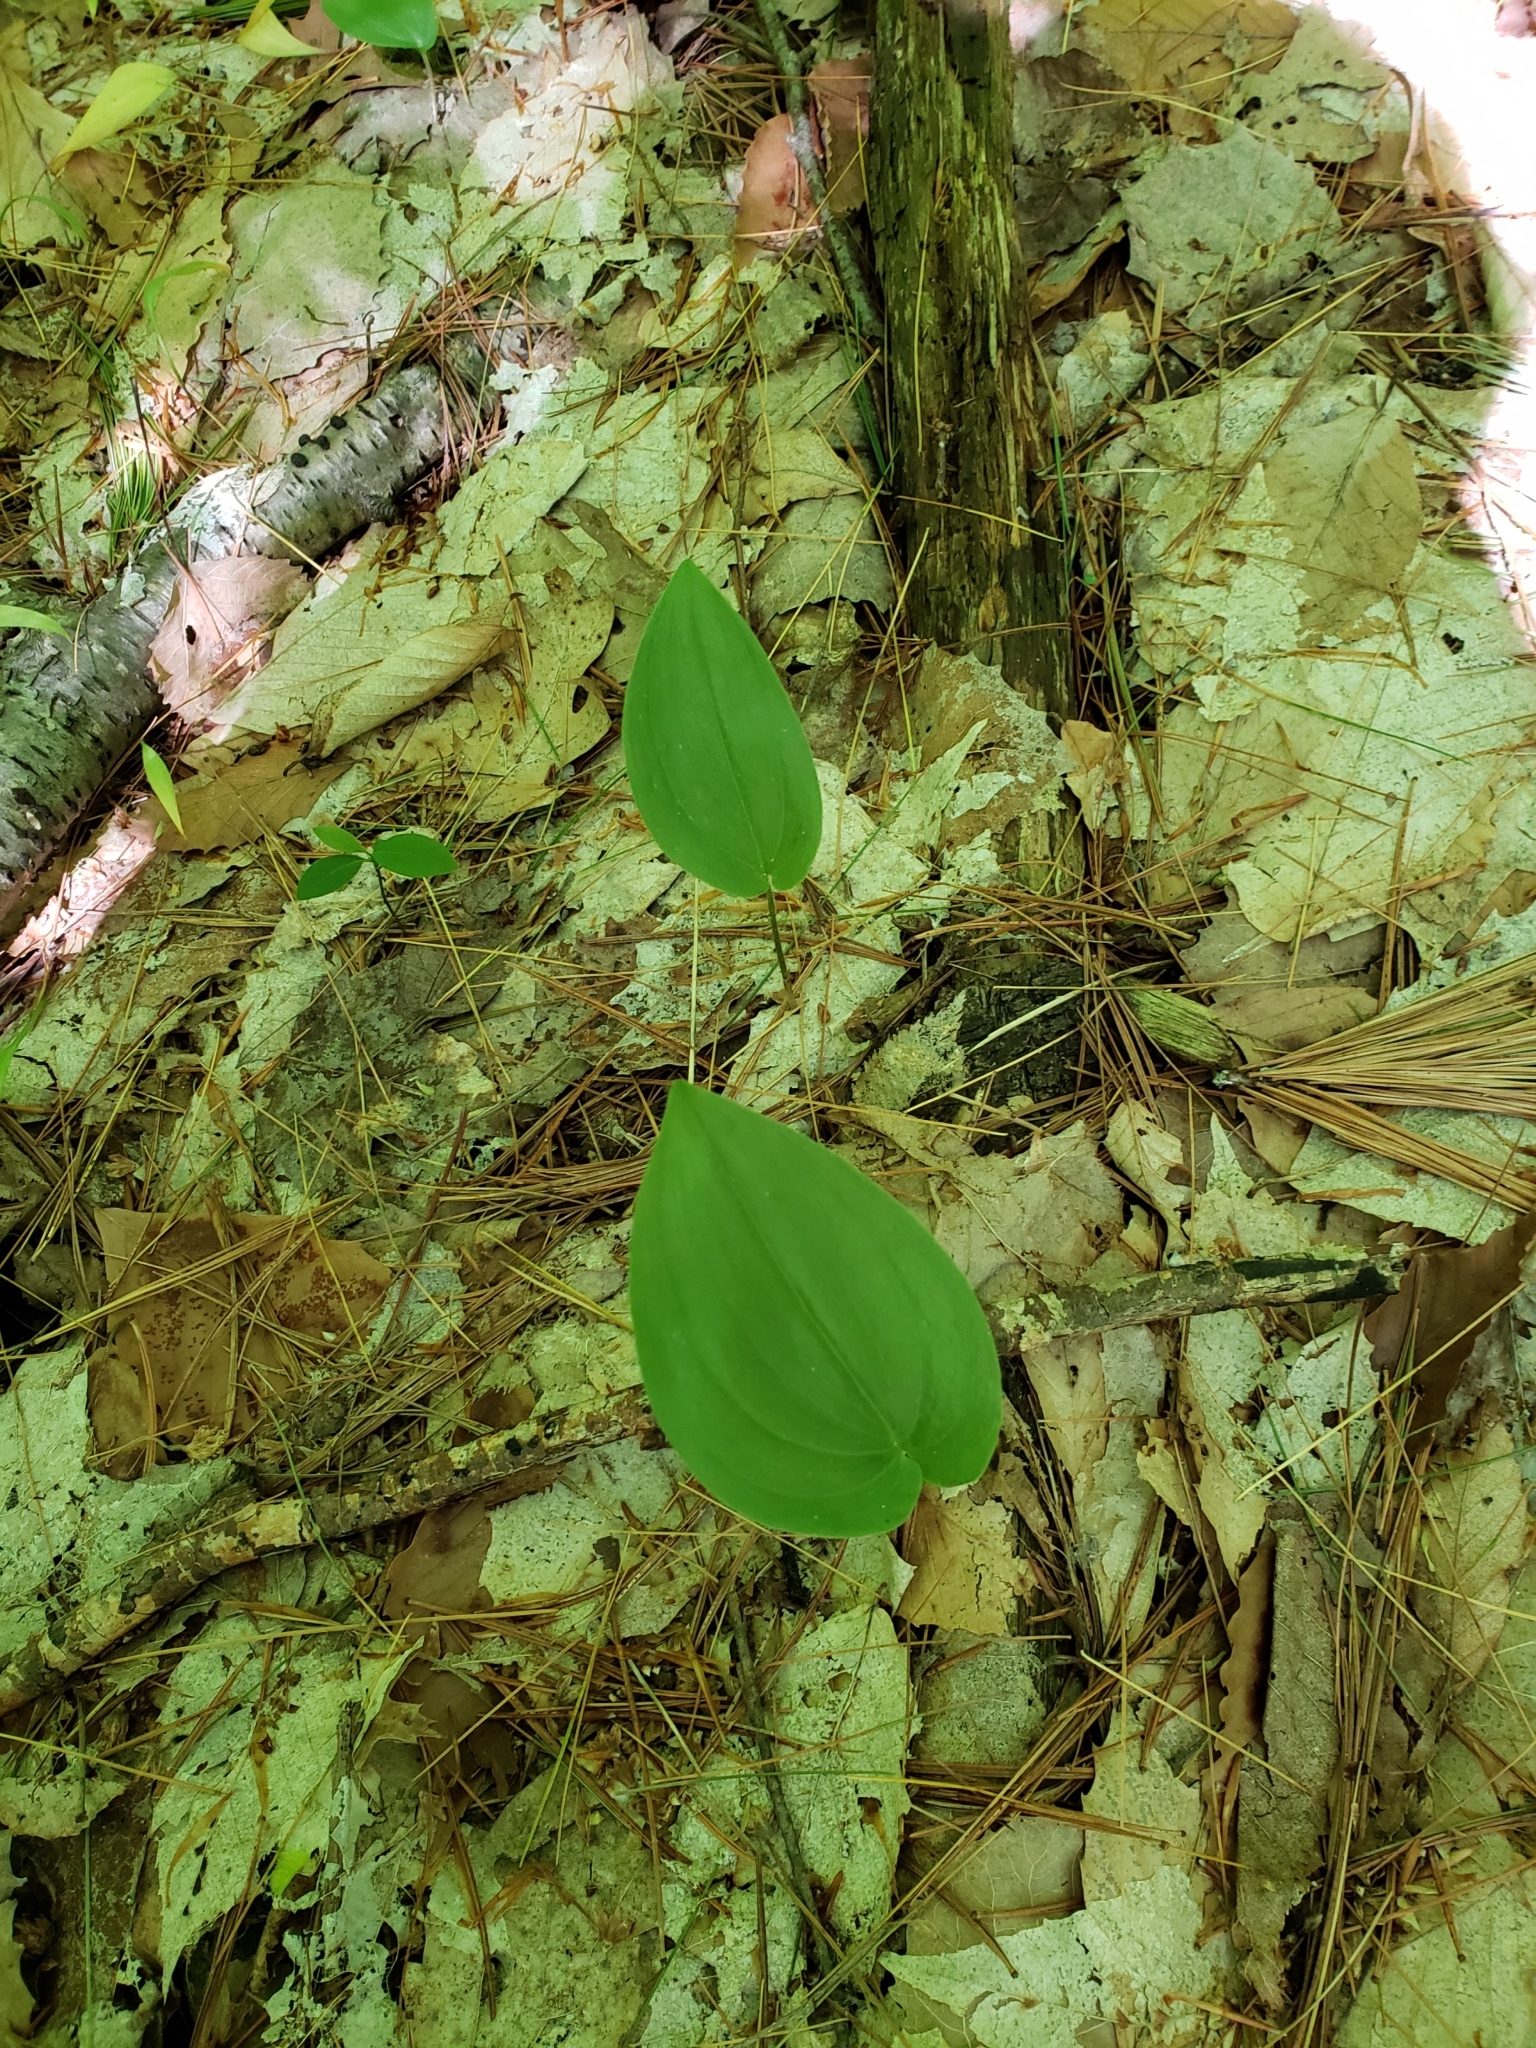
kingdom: Plantae
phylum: Tracheophyta
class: Liliopsida
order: Asparagales
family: Asparagaceae
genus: Maianthemum
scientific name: Maianthemum canadense
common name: False lily-of-the-valley
